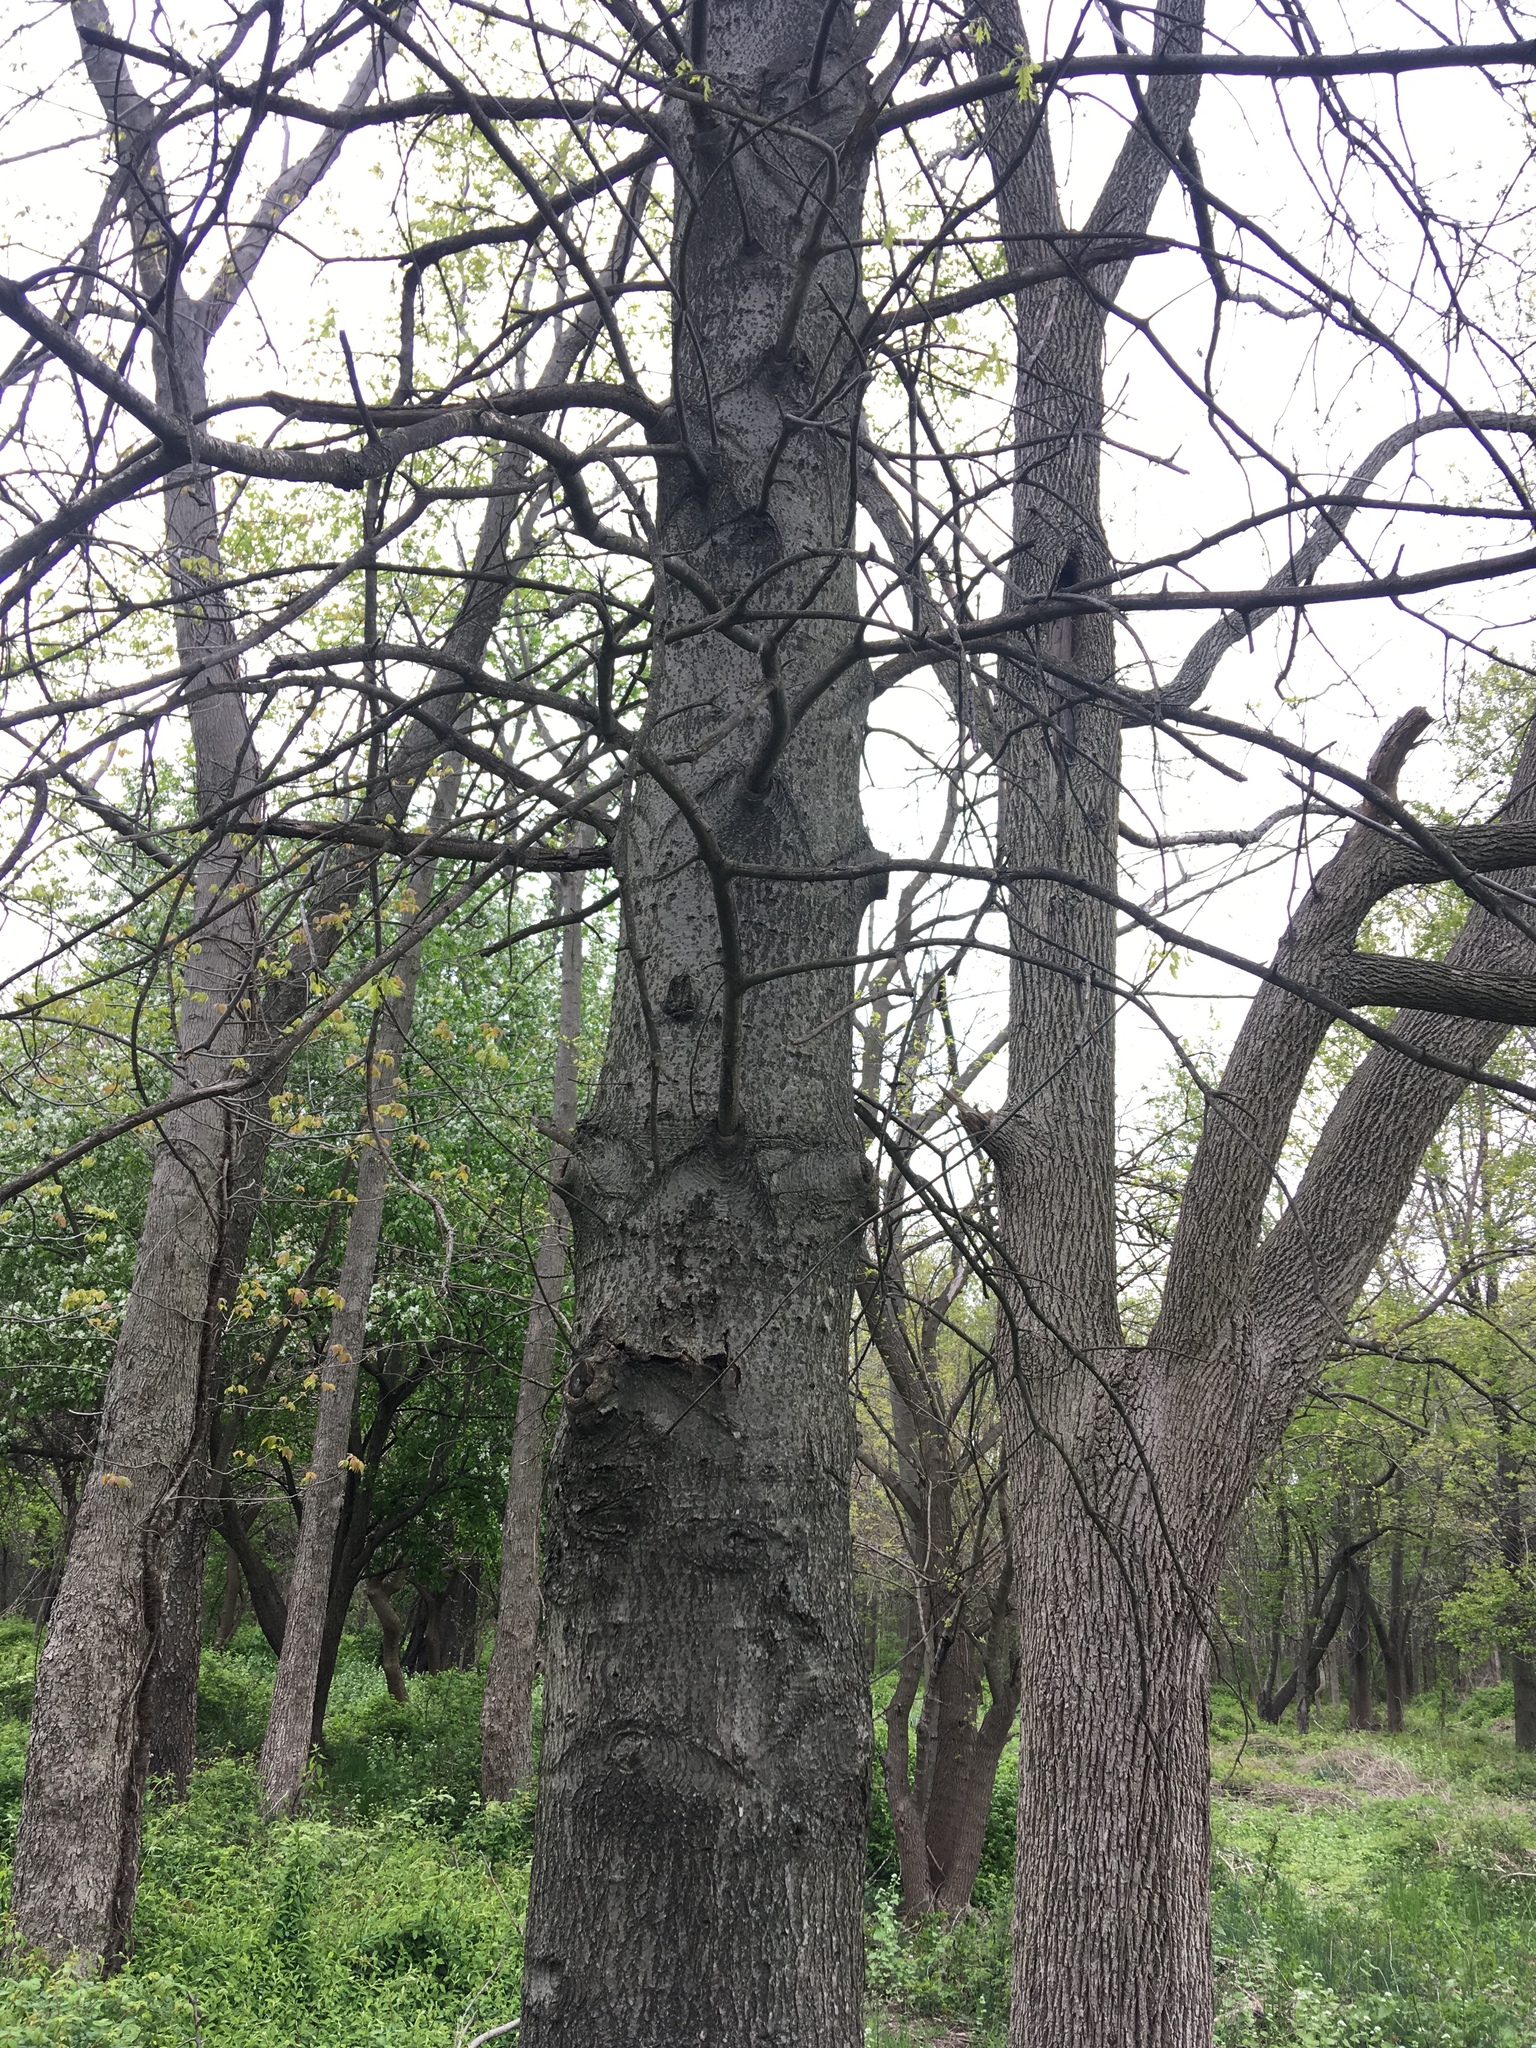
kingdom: Plantae
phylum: Tracheophyta
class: Magnoliopsida
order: Fagales
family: Fagaceae
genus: Quercus
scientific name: Quercus palustris
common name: Pin oak
